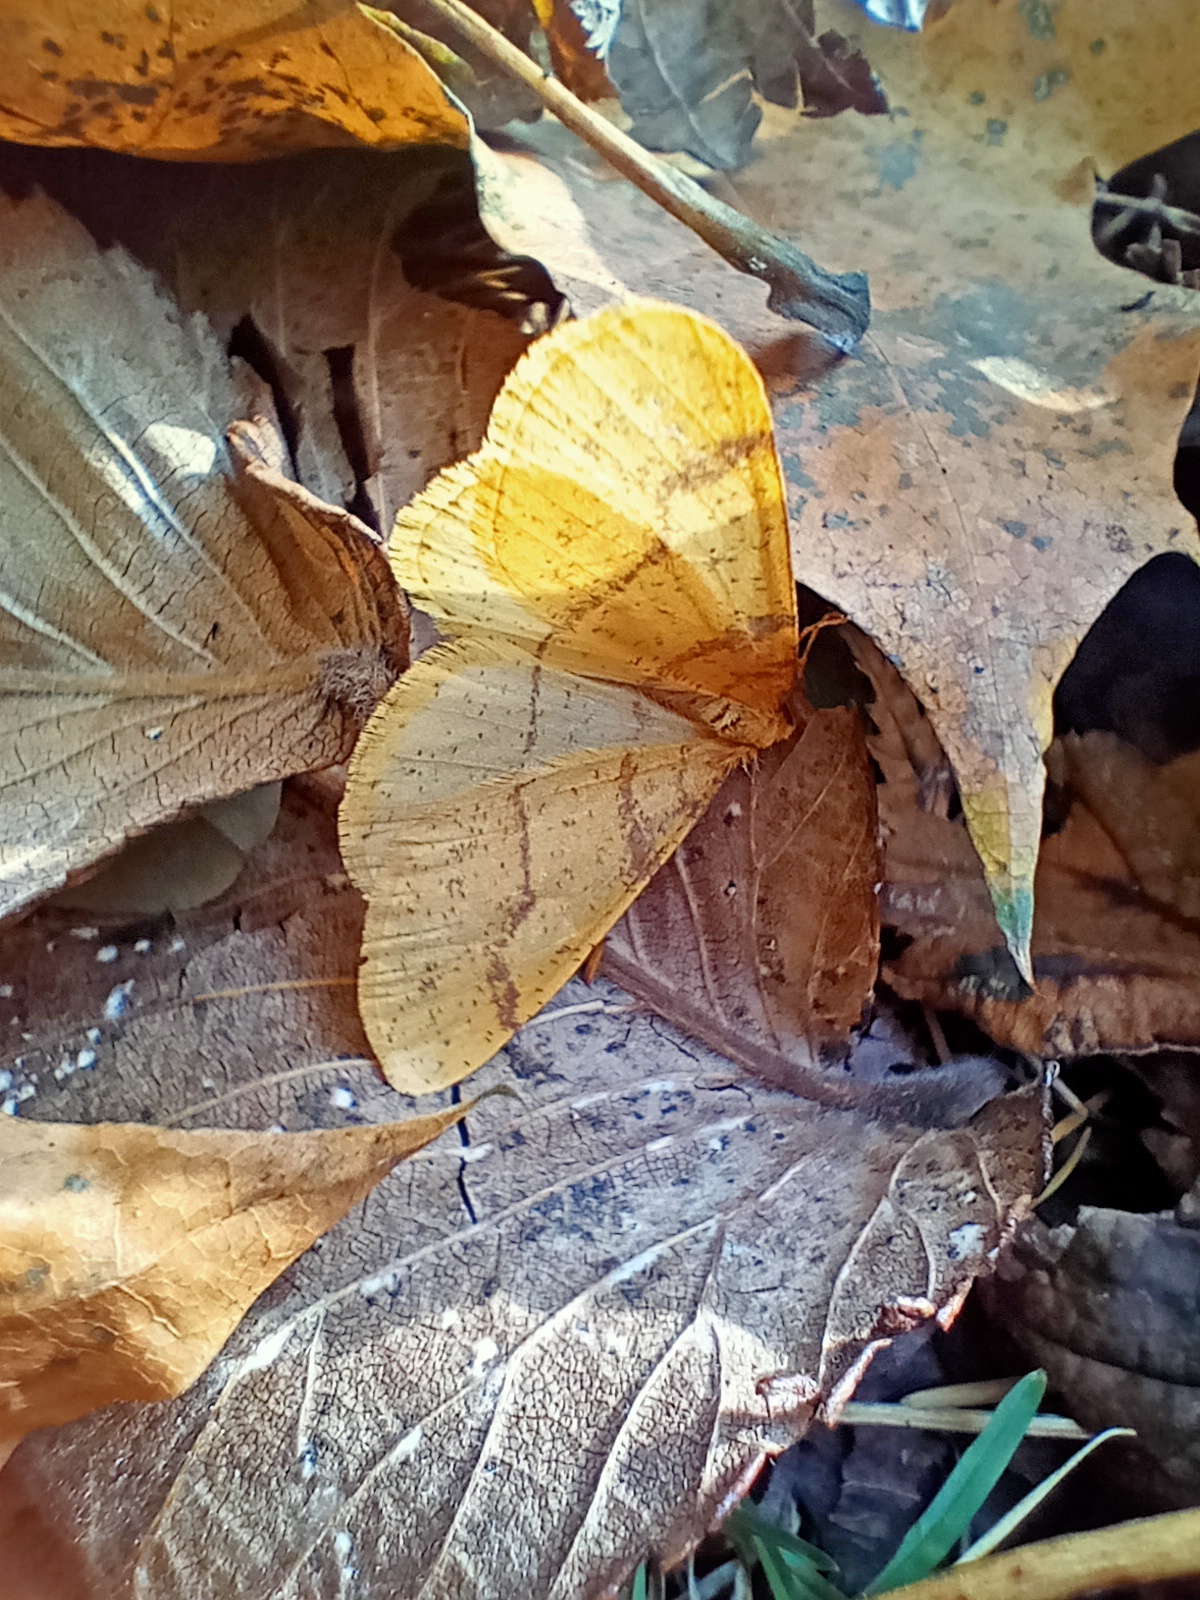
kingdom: Animalia
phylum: Arthropoda
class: Insecta
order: Lepidoptera
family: Geometridae
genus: Agriopis
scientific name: Agriopis aurantiaria
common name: Scarce umber
